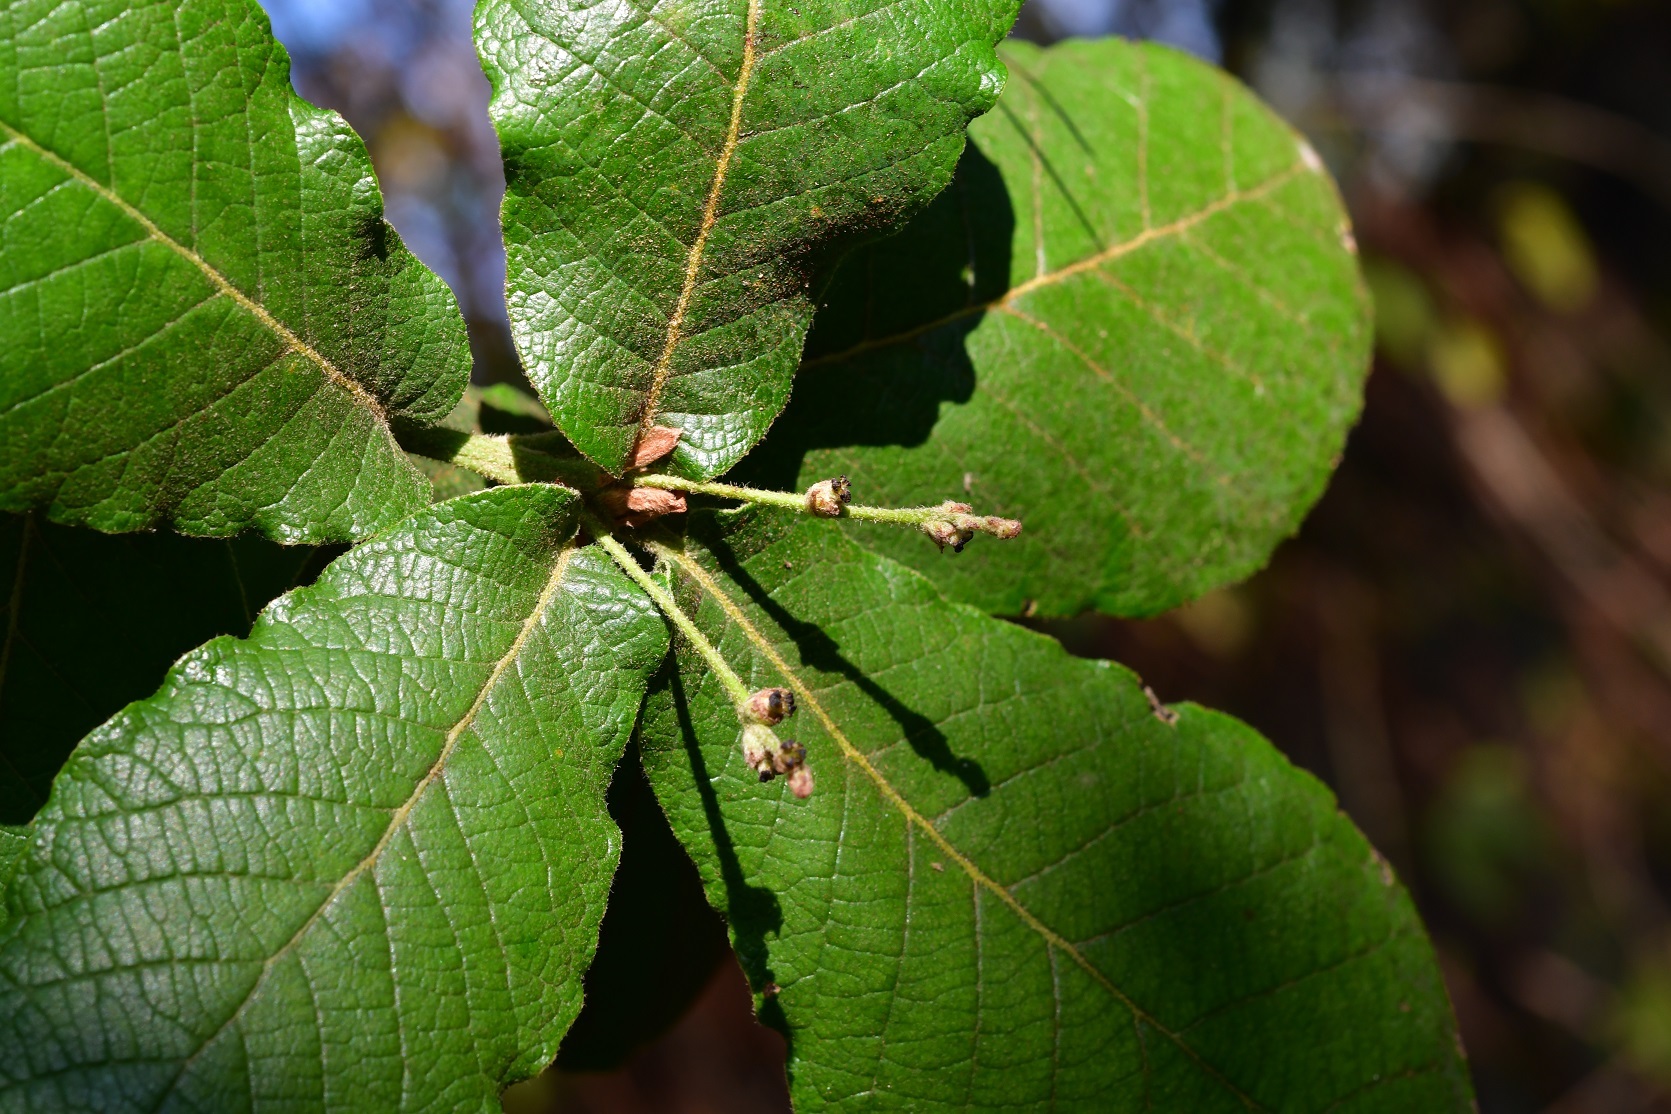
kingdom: Plantae
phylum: Tracheophyta
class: Magnoliopsida
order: Fagales
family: Fagaceae
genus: Quercus
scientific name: Quercus rugosa
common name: Netleaf oak
